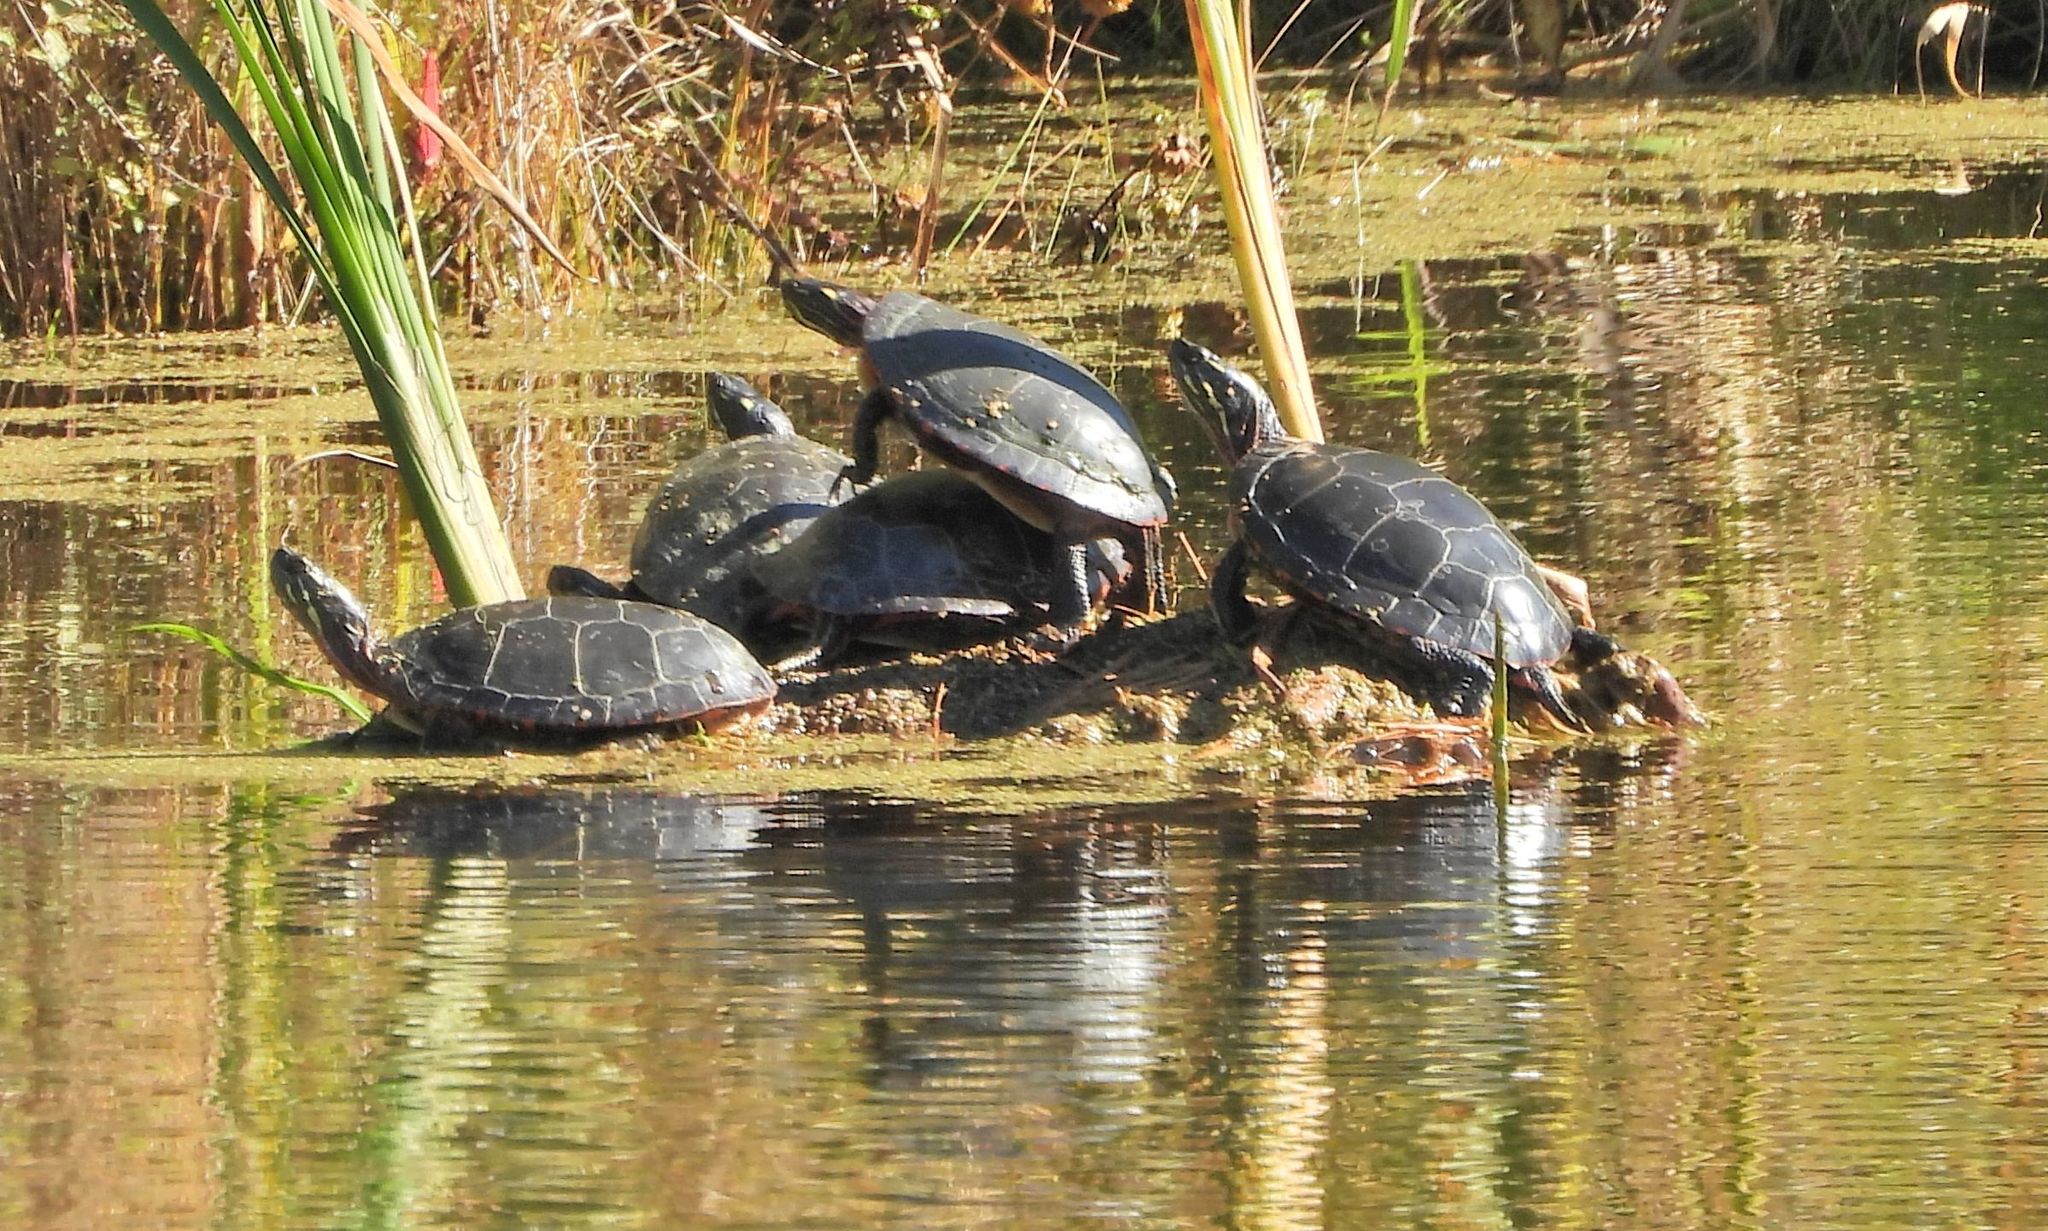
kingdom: Animalia
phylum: Chordata
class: Testudines
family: Emydidae
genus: Chrysemys
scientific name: Chrysemys picta
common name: Painted turtle
